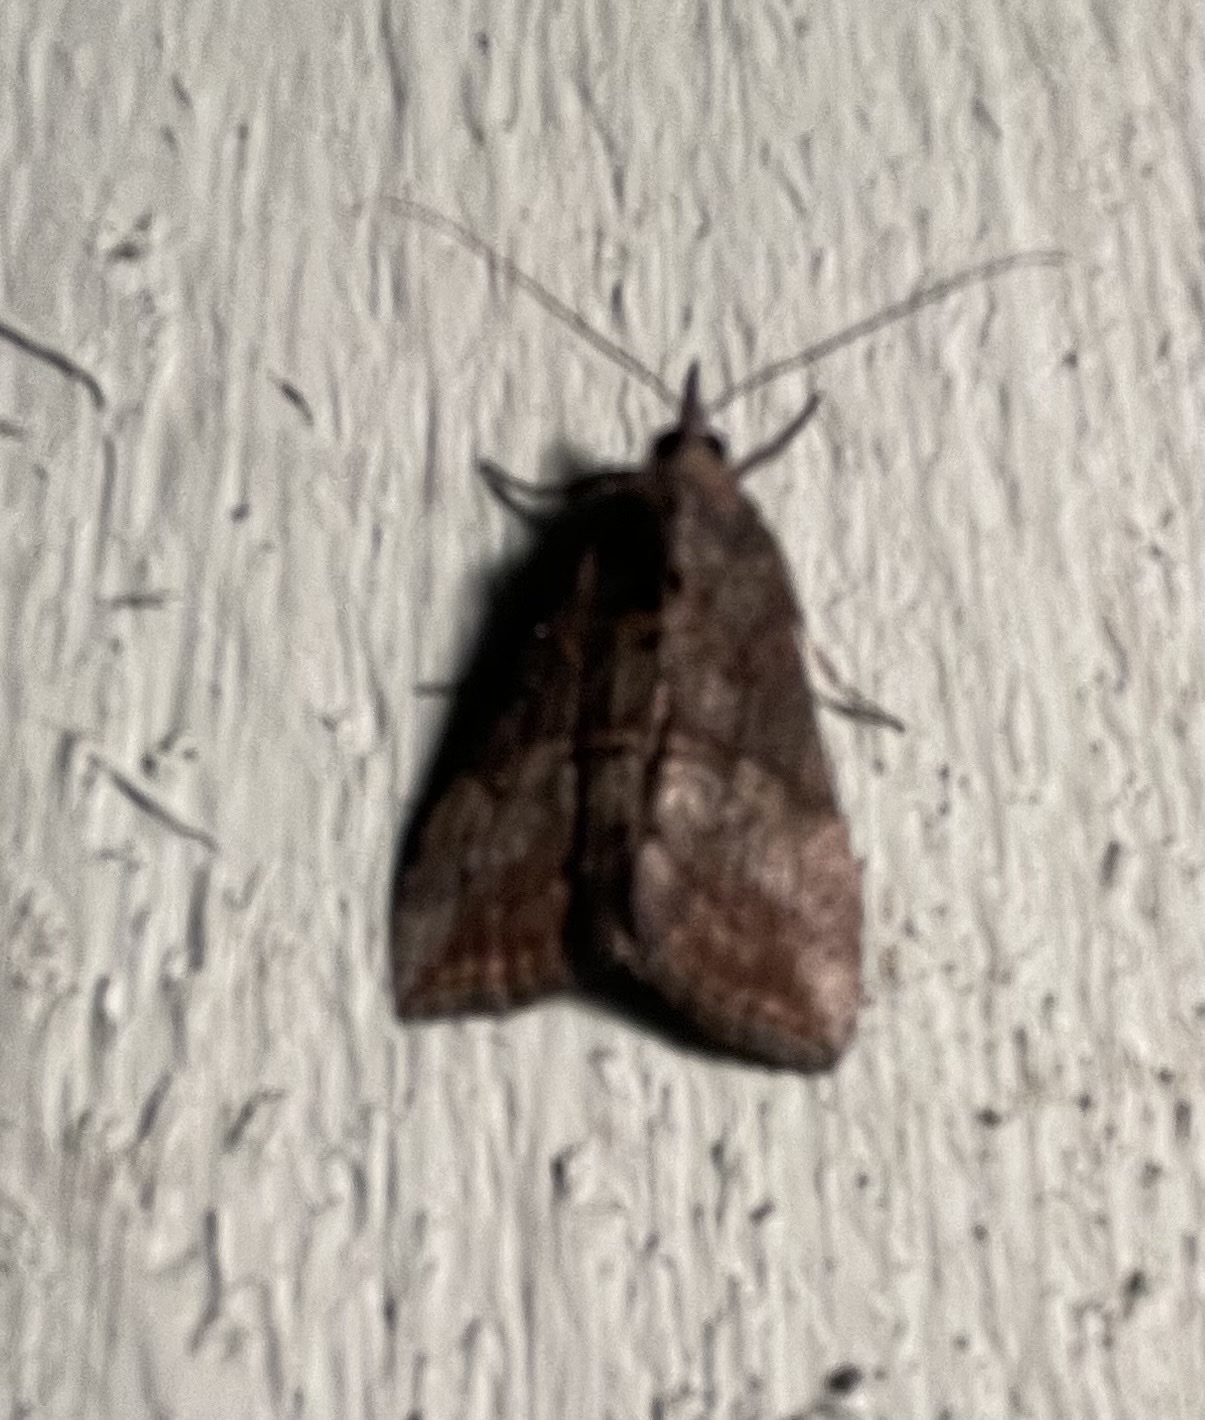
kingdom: Animalia
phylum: Arthropoda
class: Insecta
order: Lepidoptera
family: Erebidae
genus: Hypena
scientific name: Hypena scabra
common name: Green cloverworm
